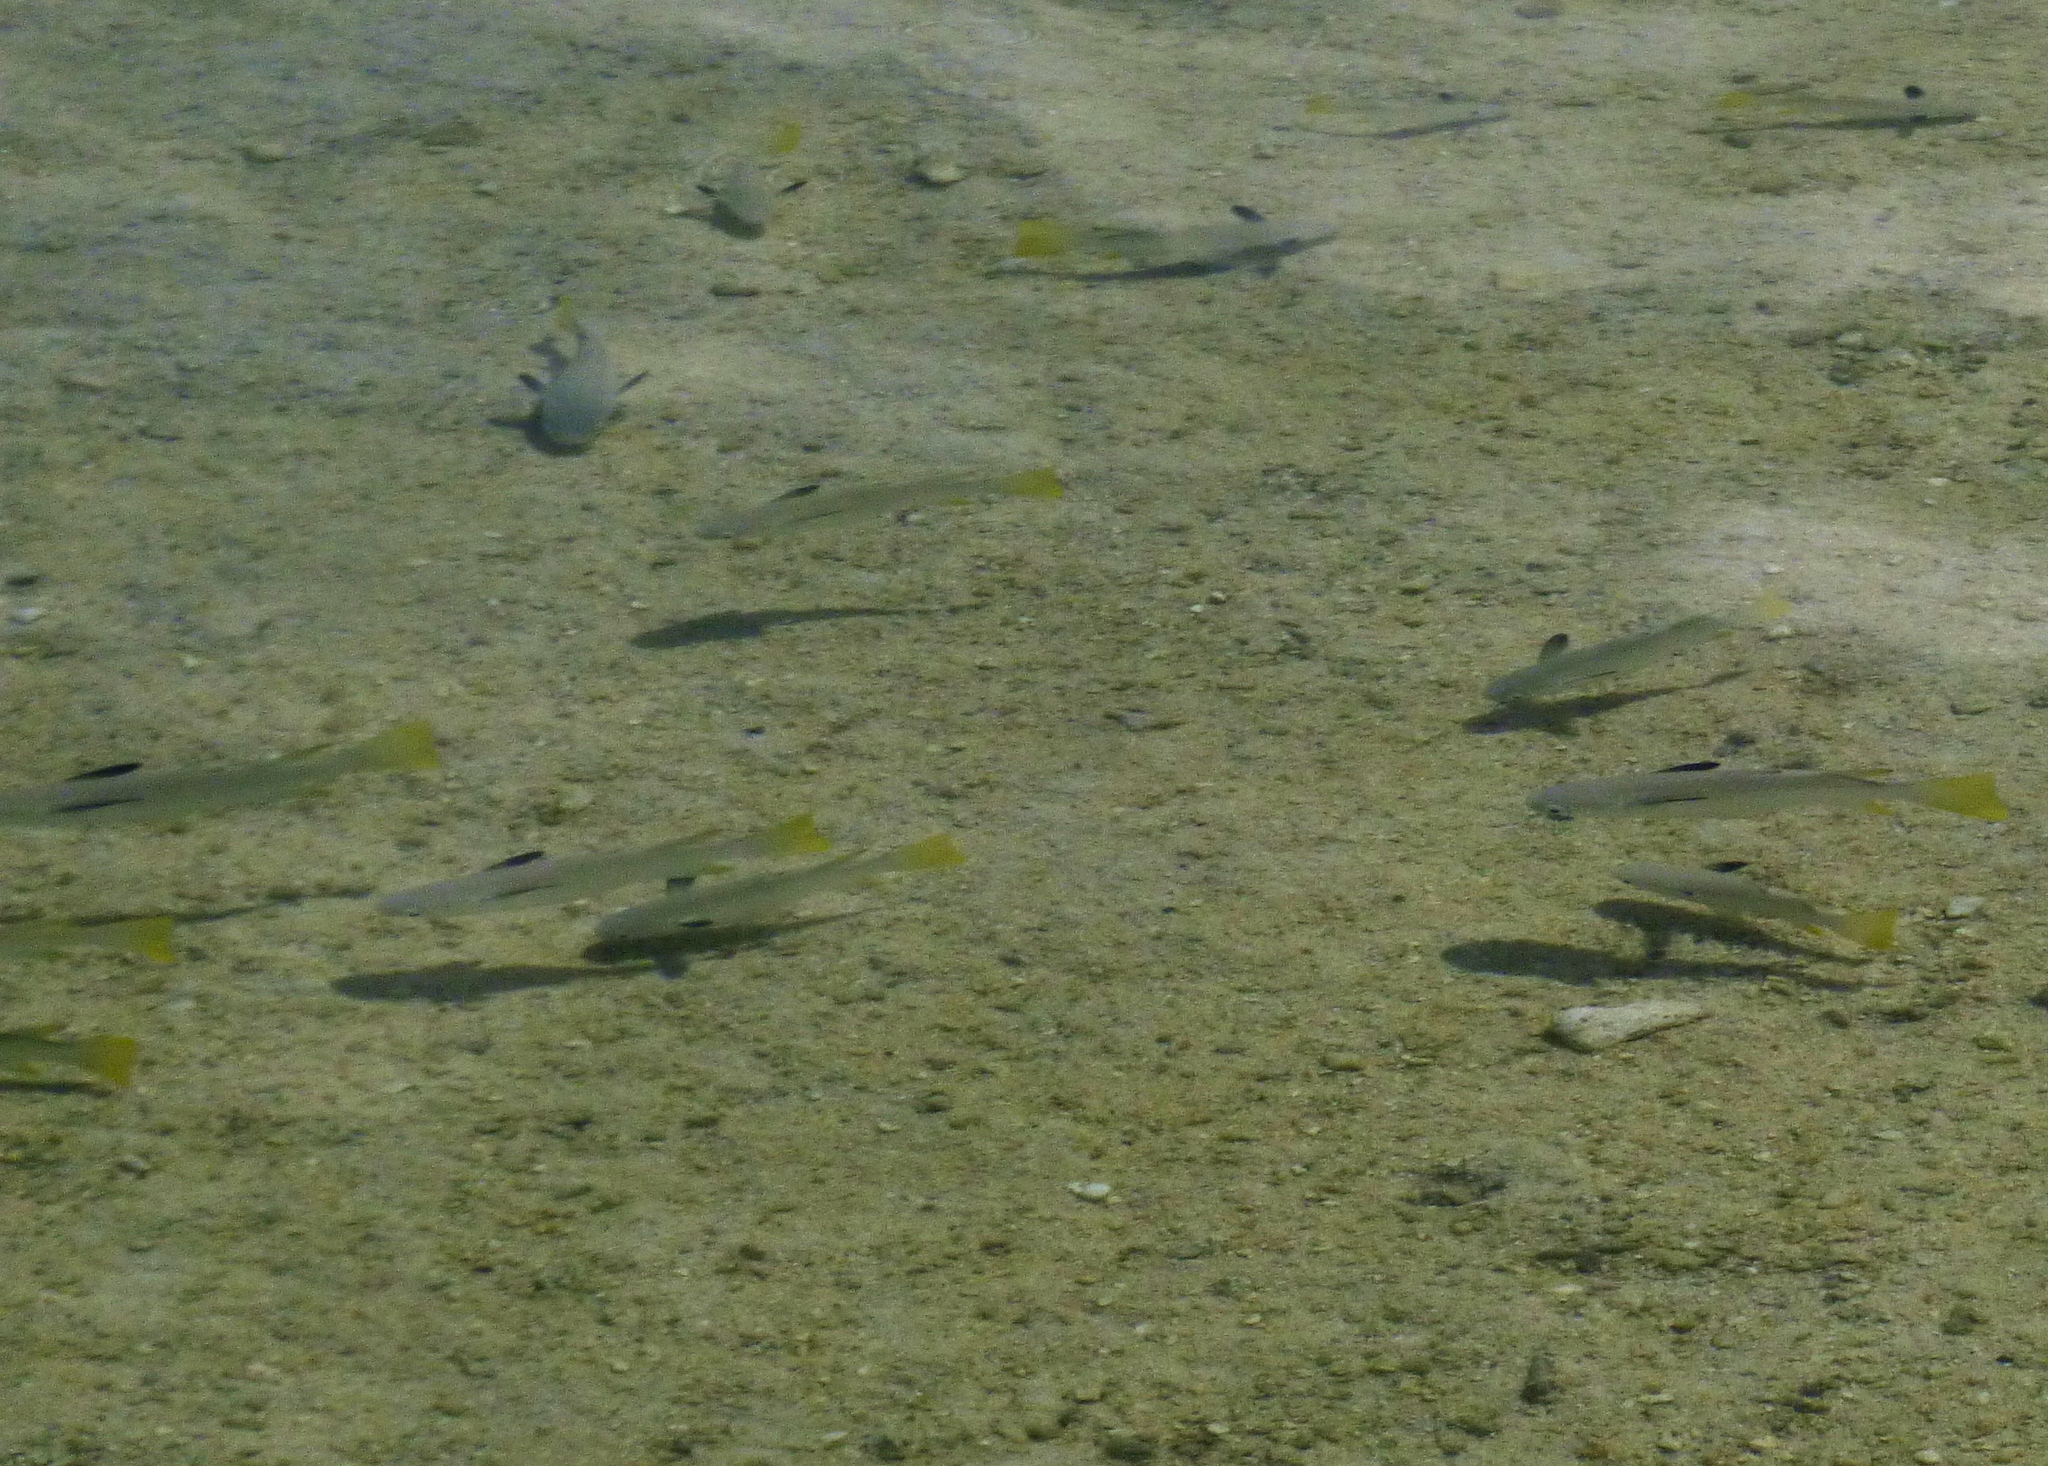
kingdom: Animalia
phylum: Chordata
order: Mugiliformes
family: Mugilidae
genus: Ellochelon
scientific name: Ellochelon vaigiensis
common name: Squaretail mullet
